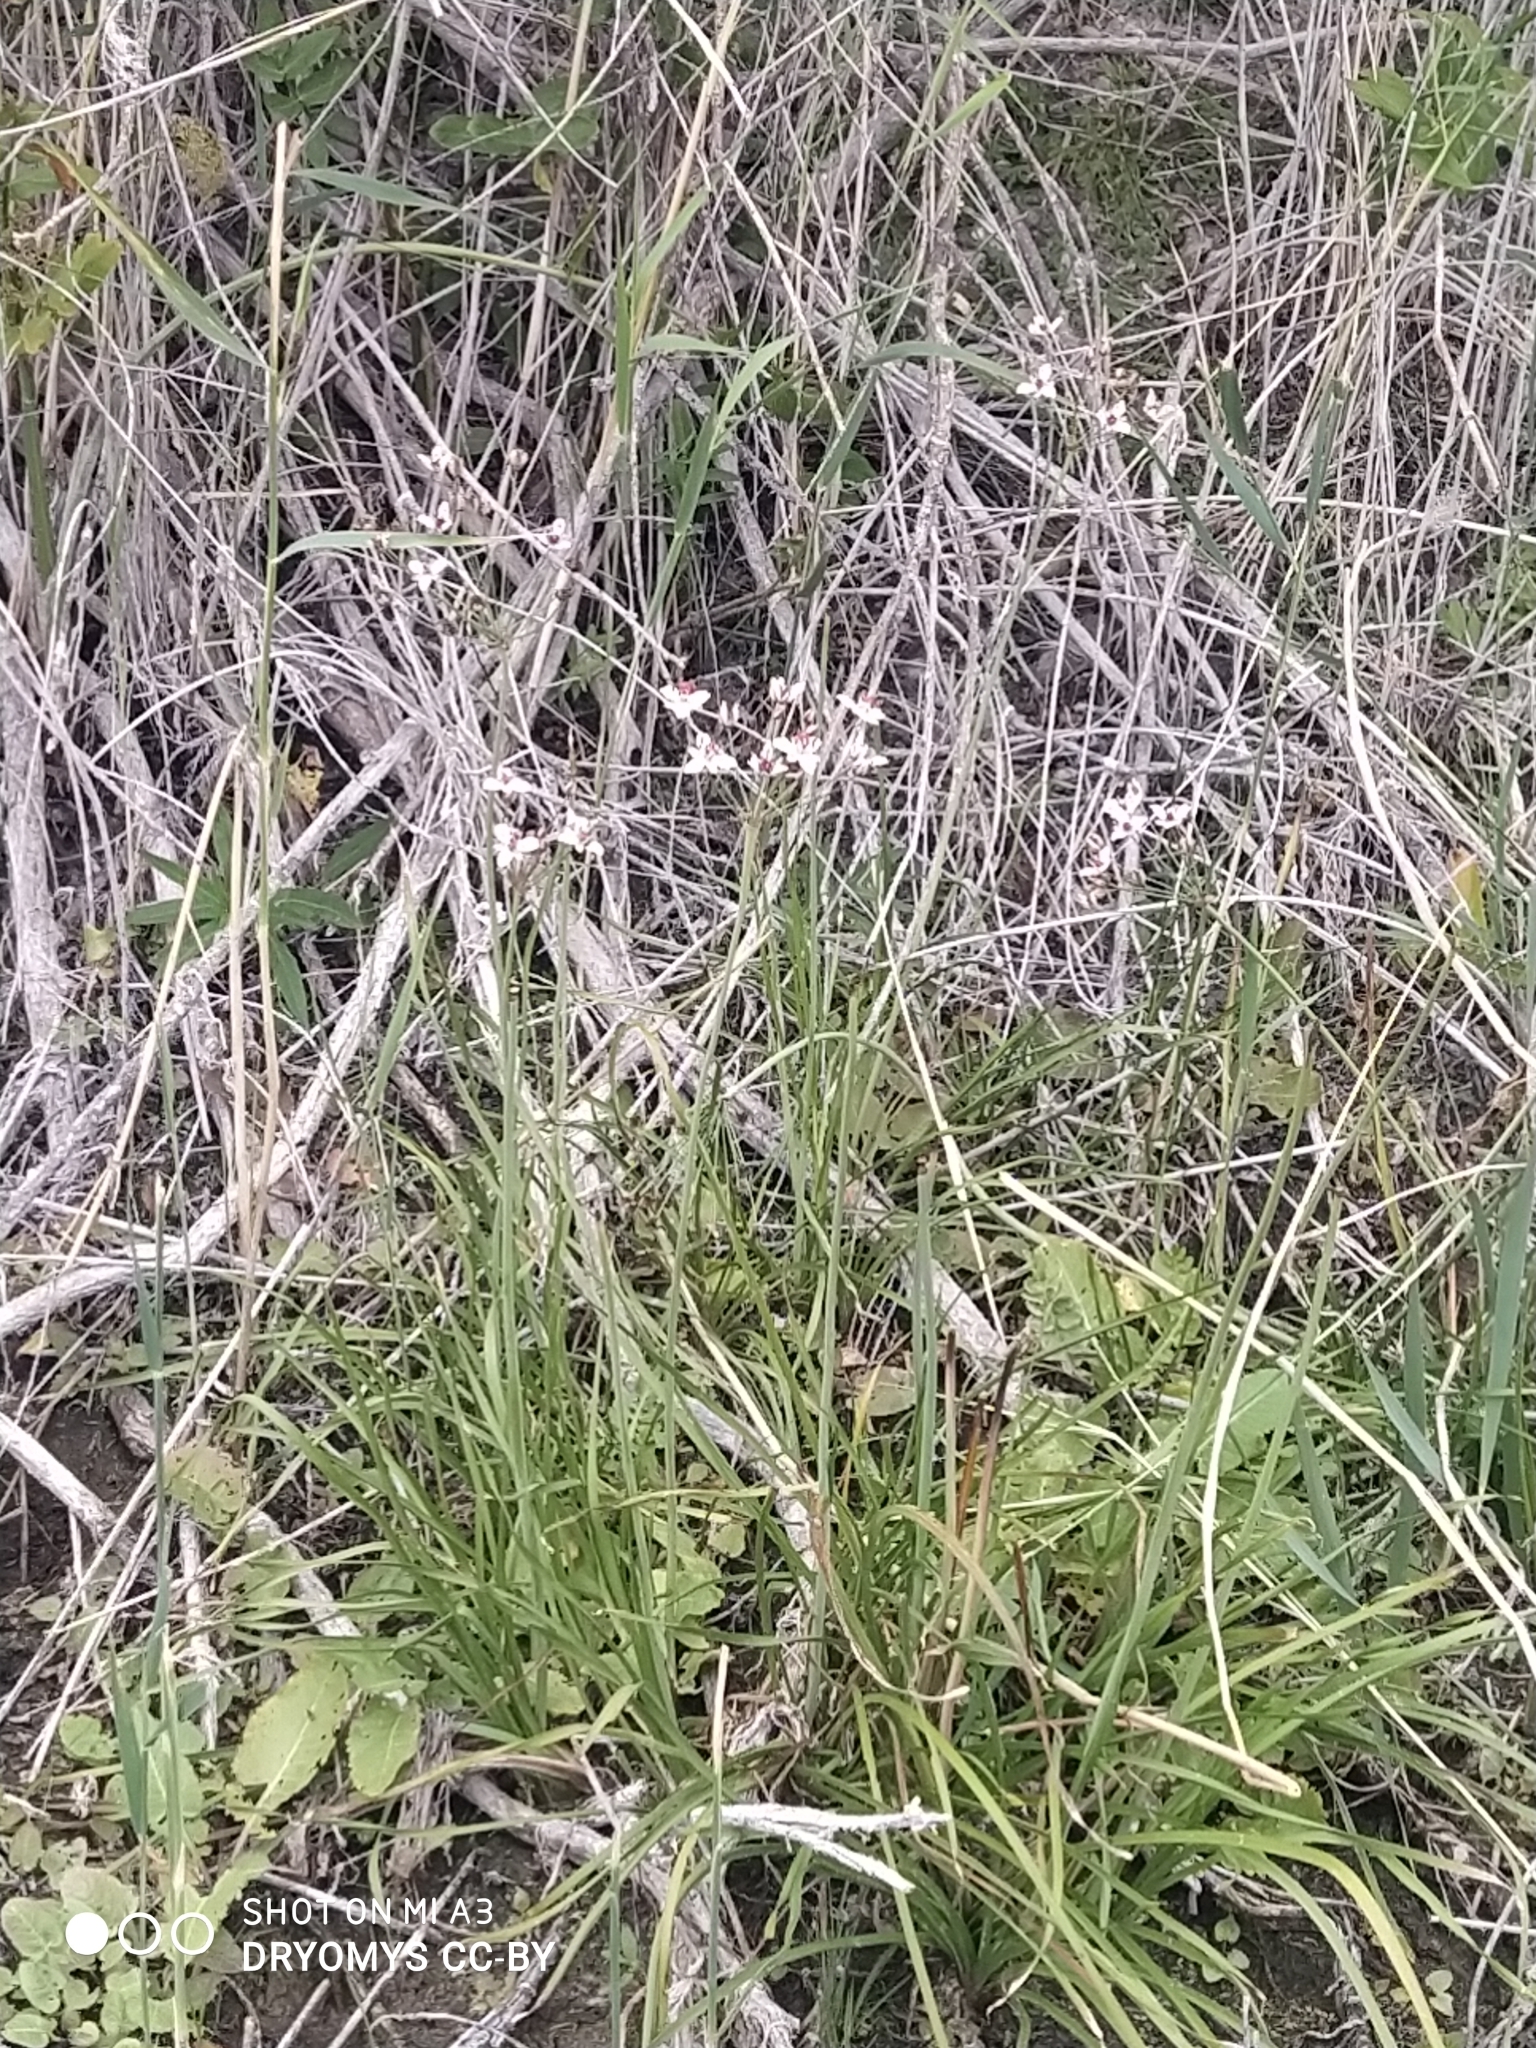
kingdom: Plantae
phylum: Tracheophyta
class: Liliopsida
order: Alismatales
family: Butomaceae
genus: Butomus
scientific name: Butomus umbellatus
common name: Flowering-rush
